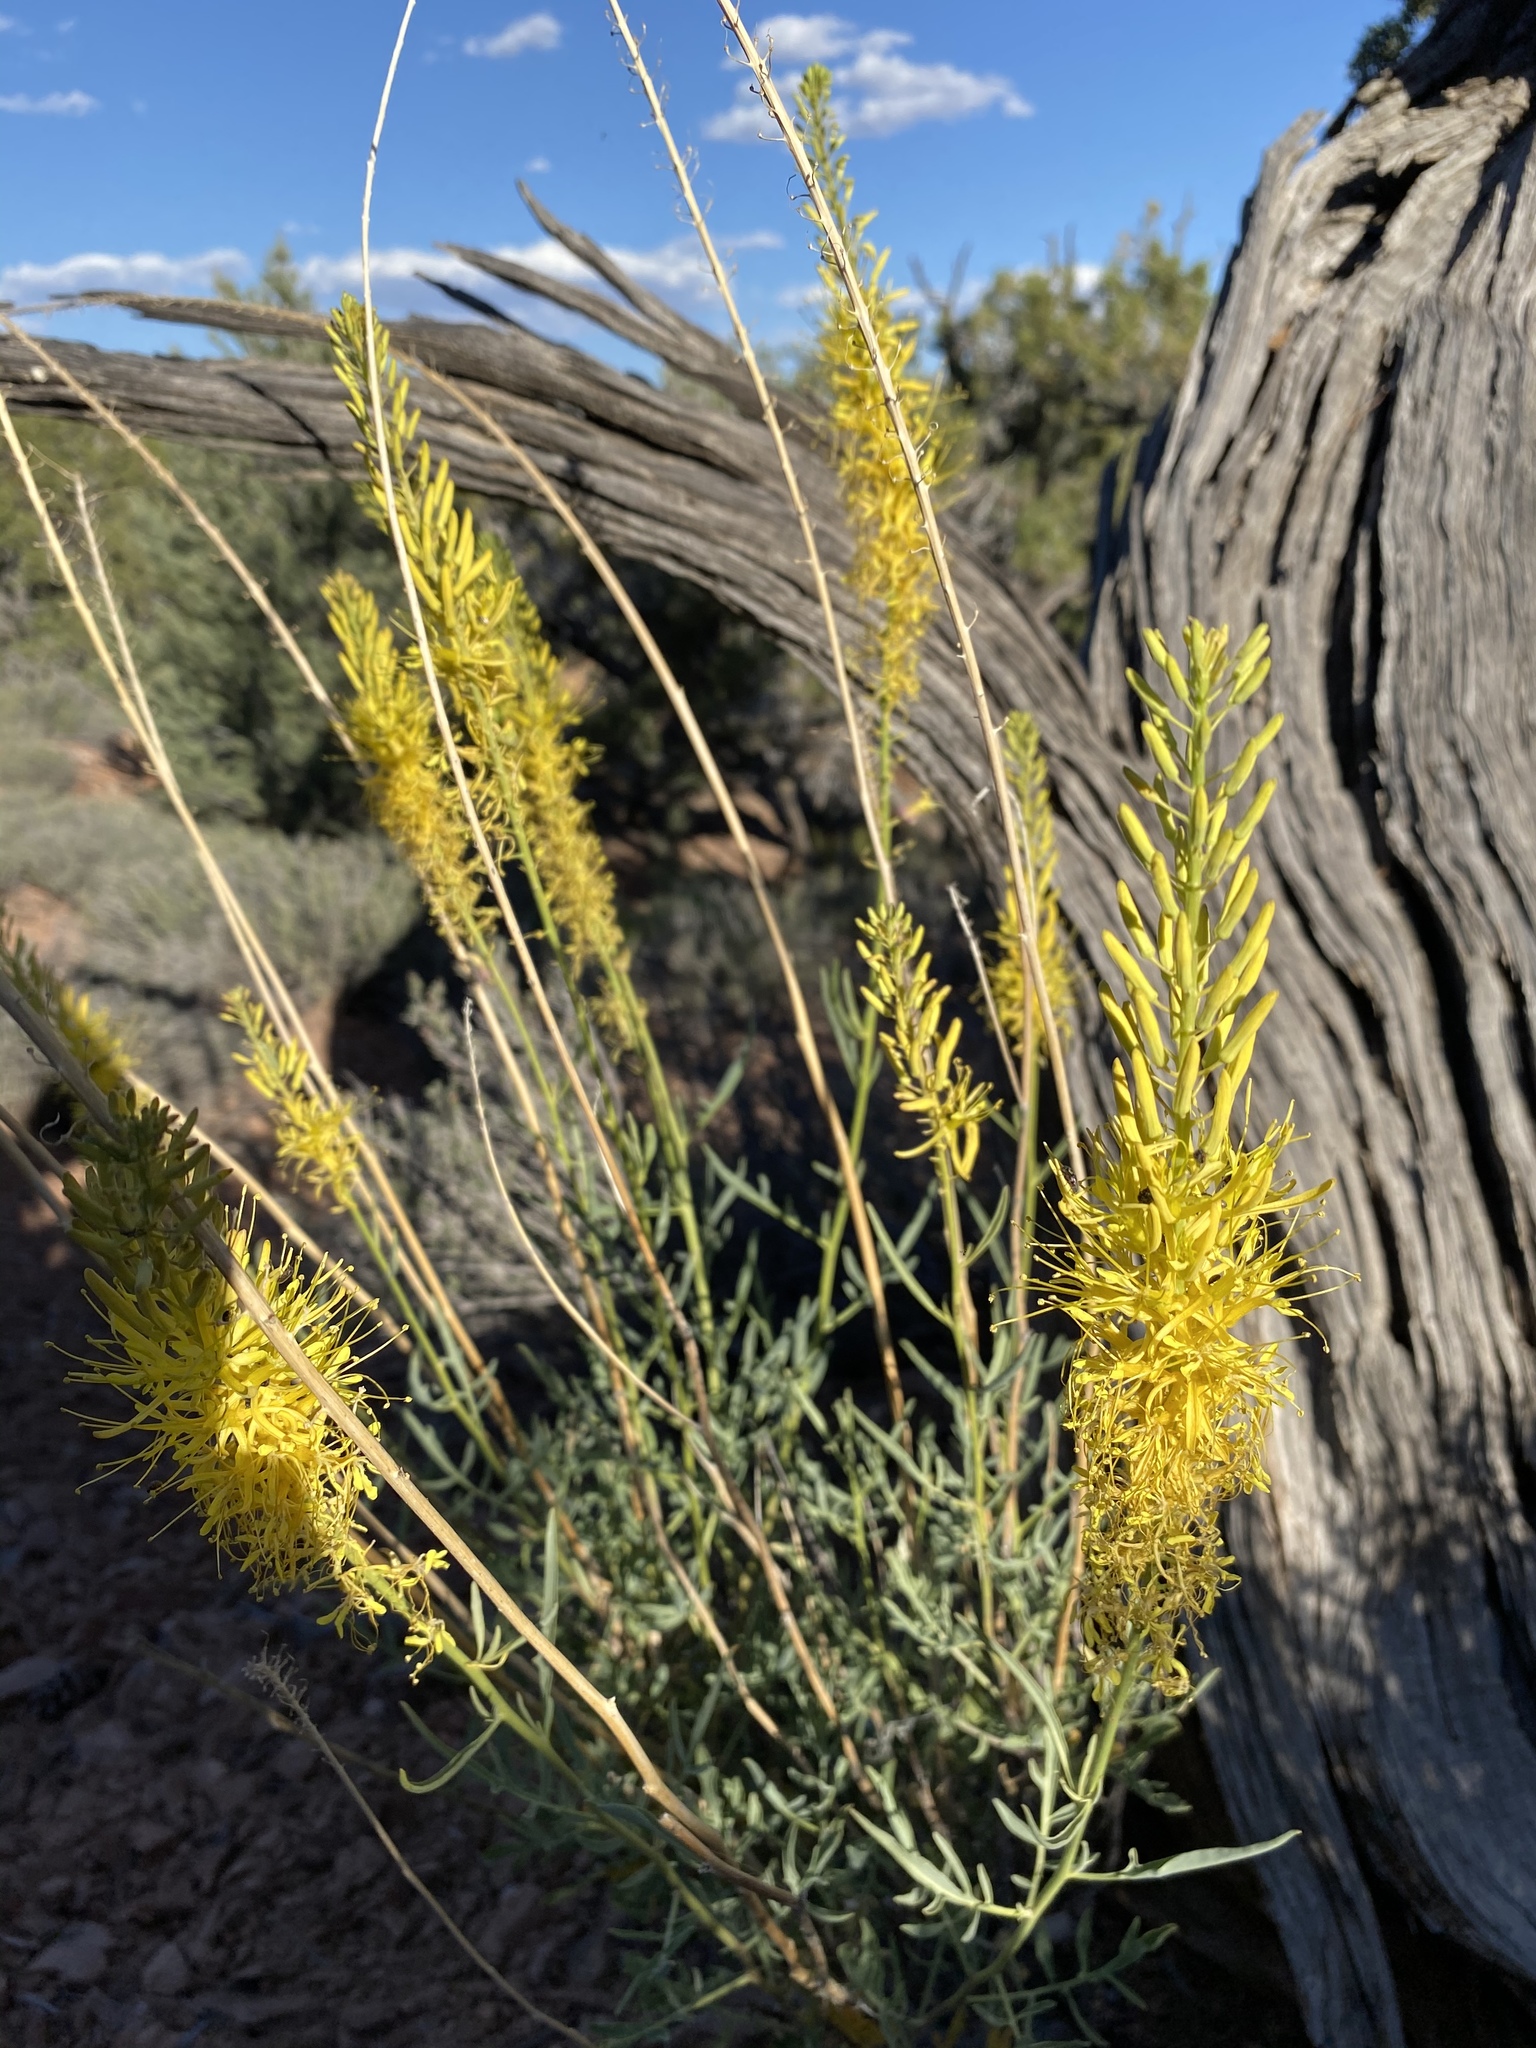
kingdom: Plantae
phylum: Tracheophyta
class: Magnoliopsida
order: Brassicales
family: Brassicaceae
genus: Stanleya
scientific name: Stanleya pinnata
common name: Prince's-plume
